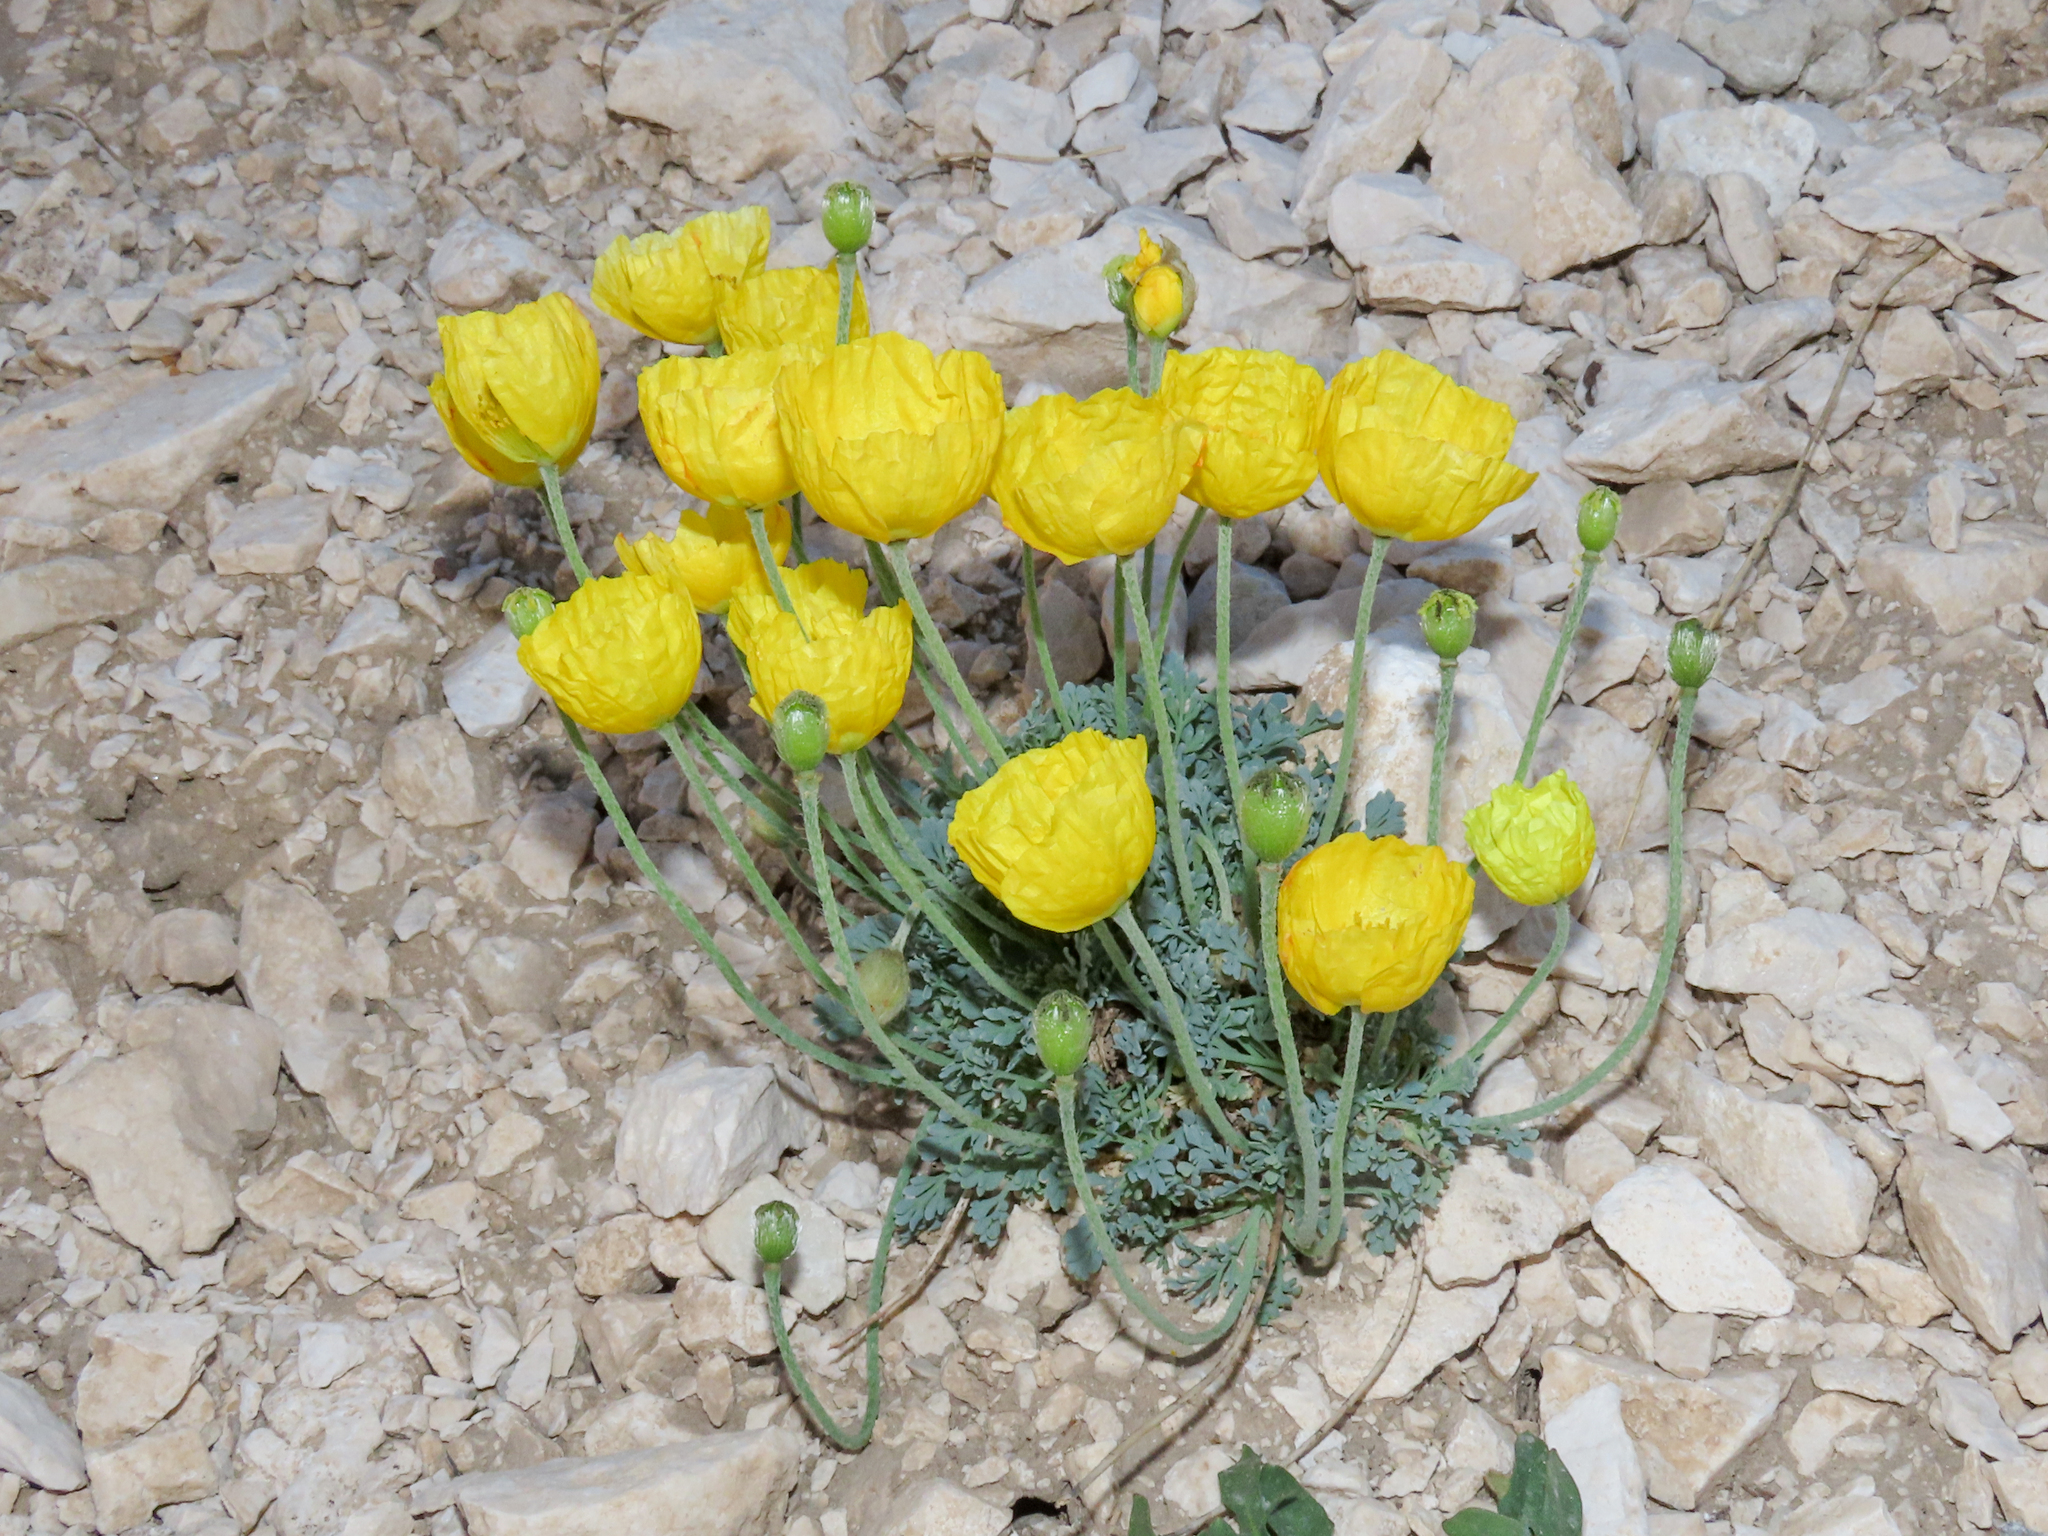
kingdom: Plantae
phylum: Tracheophyta
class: Magnoliopsida
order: Ranunculales
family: Papaveraceae
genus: Papaver
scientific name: Papaver alpinum
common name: Austrian poppy
